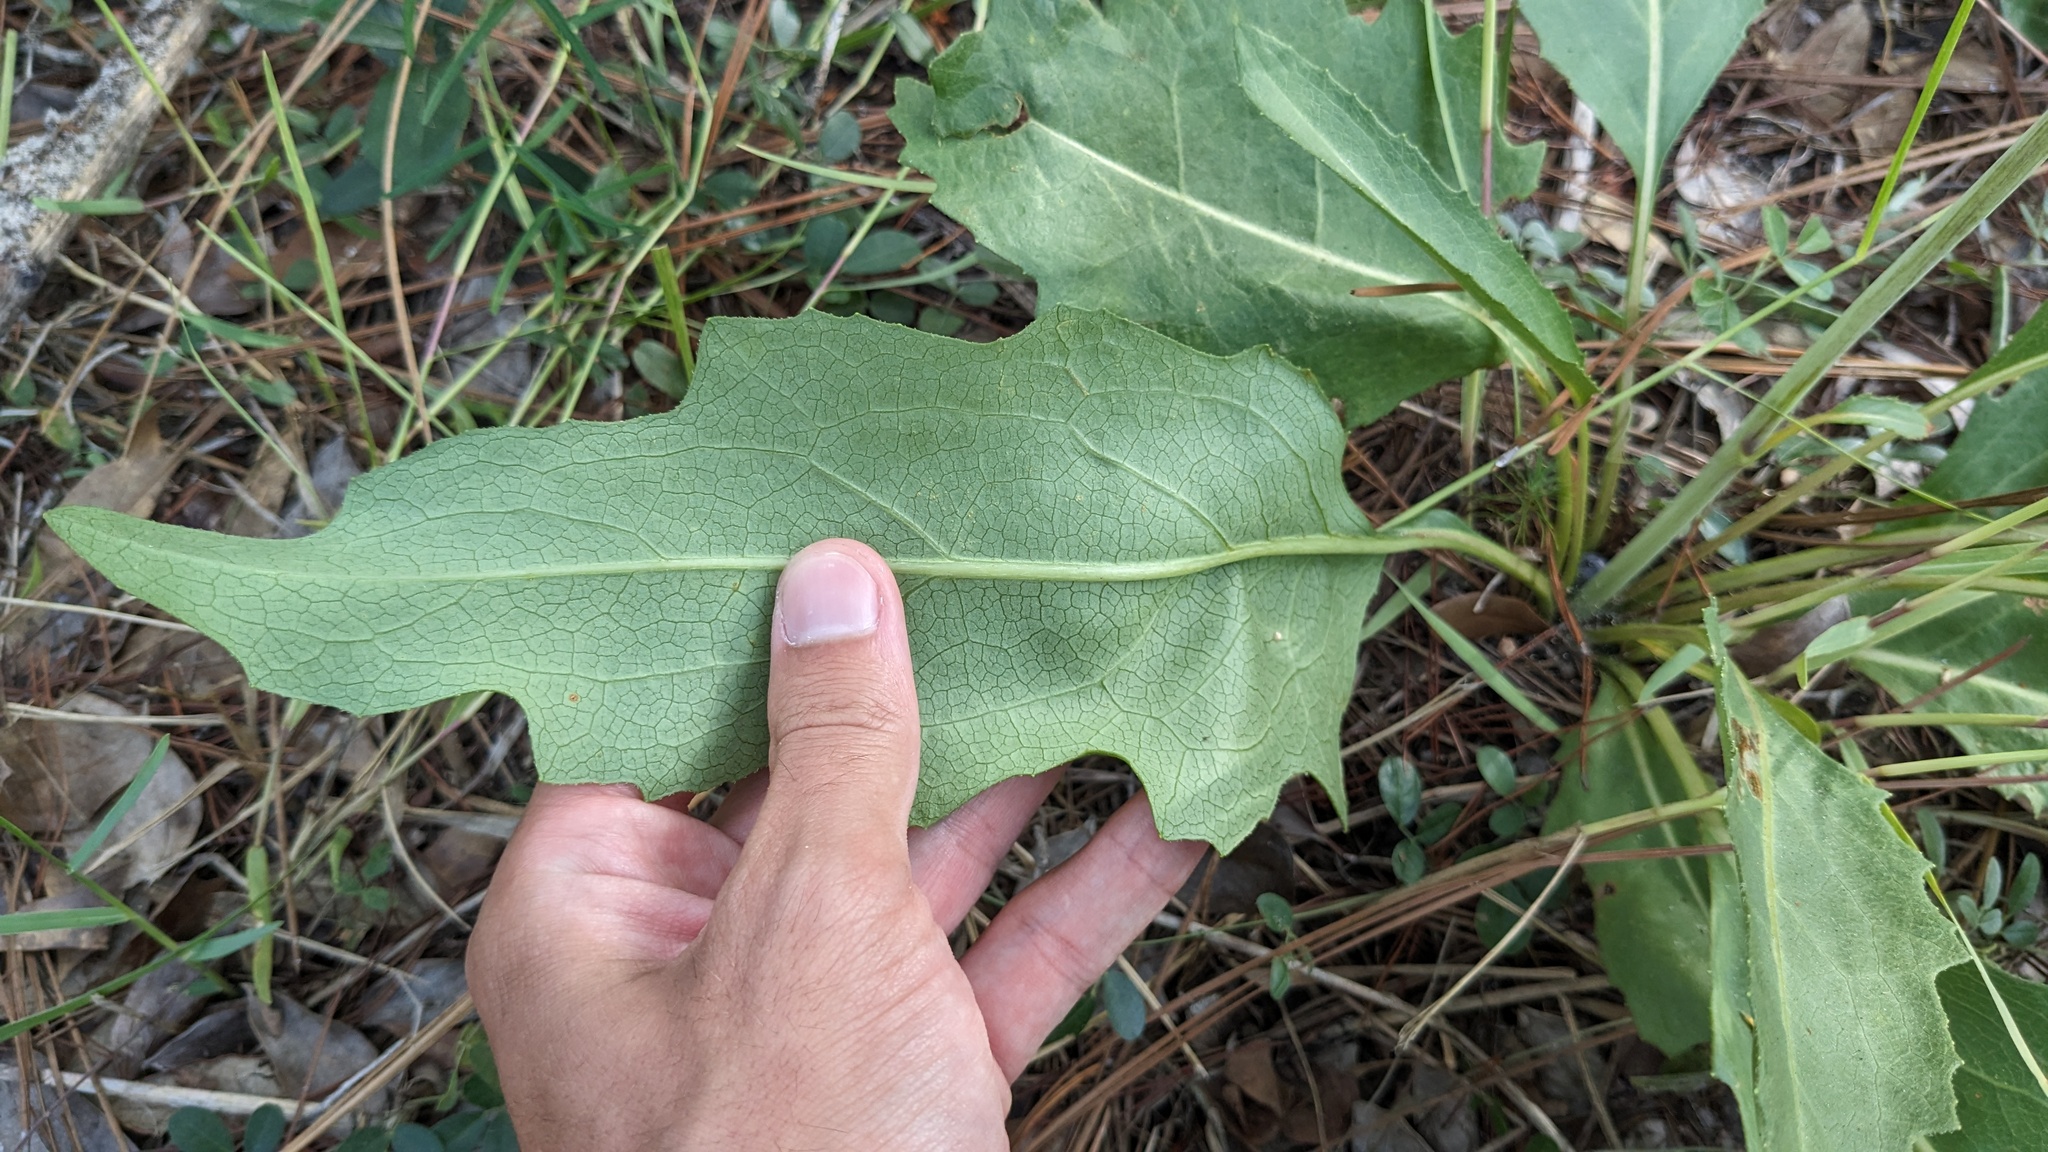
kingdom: Plantae
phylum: Tracheophyta
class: Magnoliopsida
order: Asterales
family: Asteraceae
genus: Silphium
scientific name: Silphium compositum
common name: Lesser basal-leaf rosinweed
